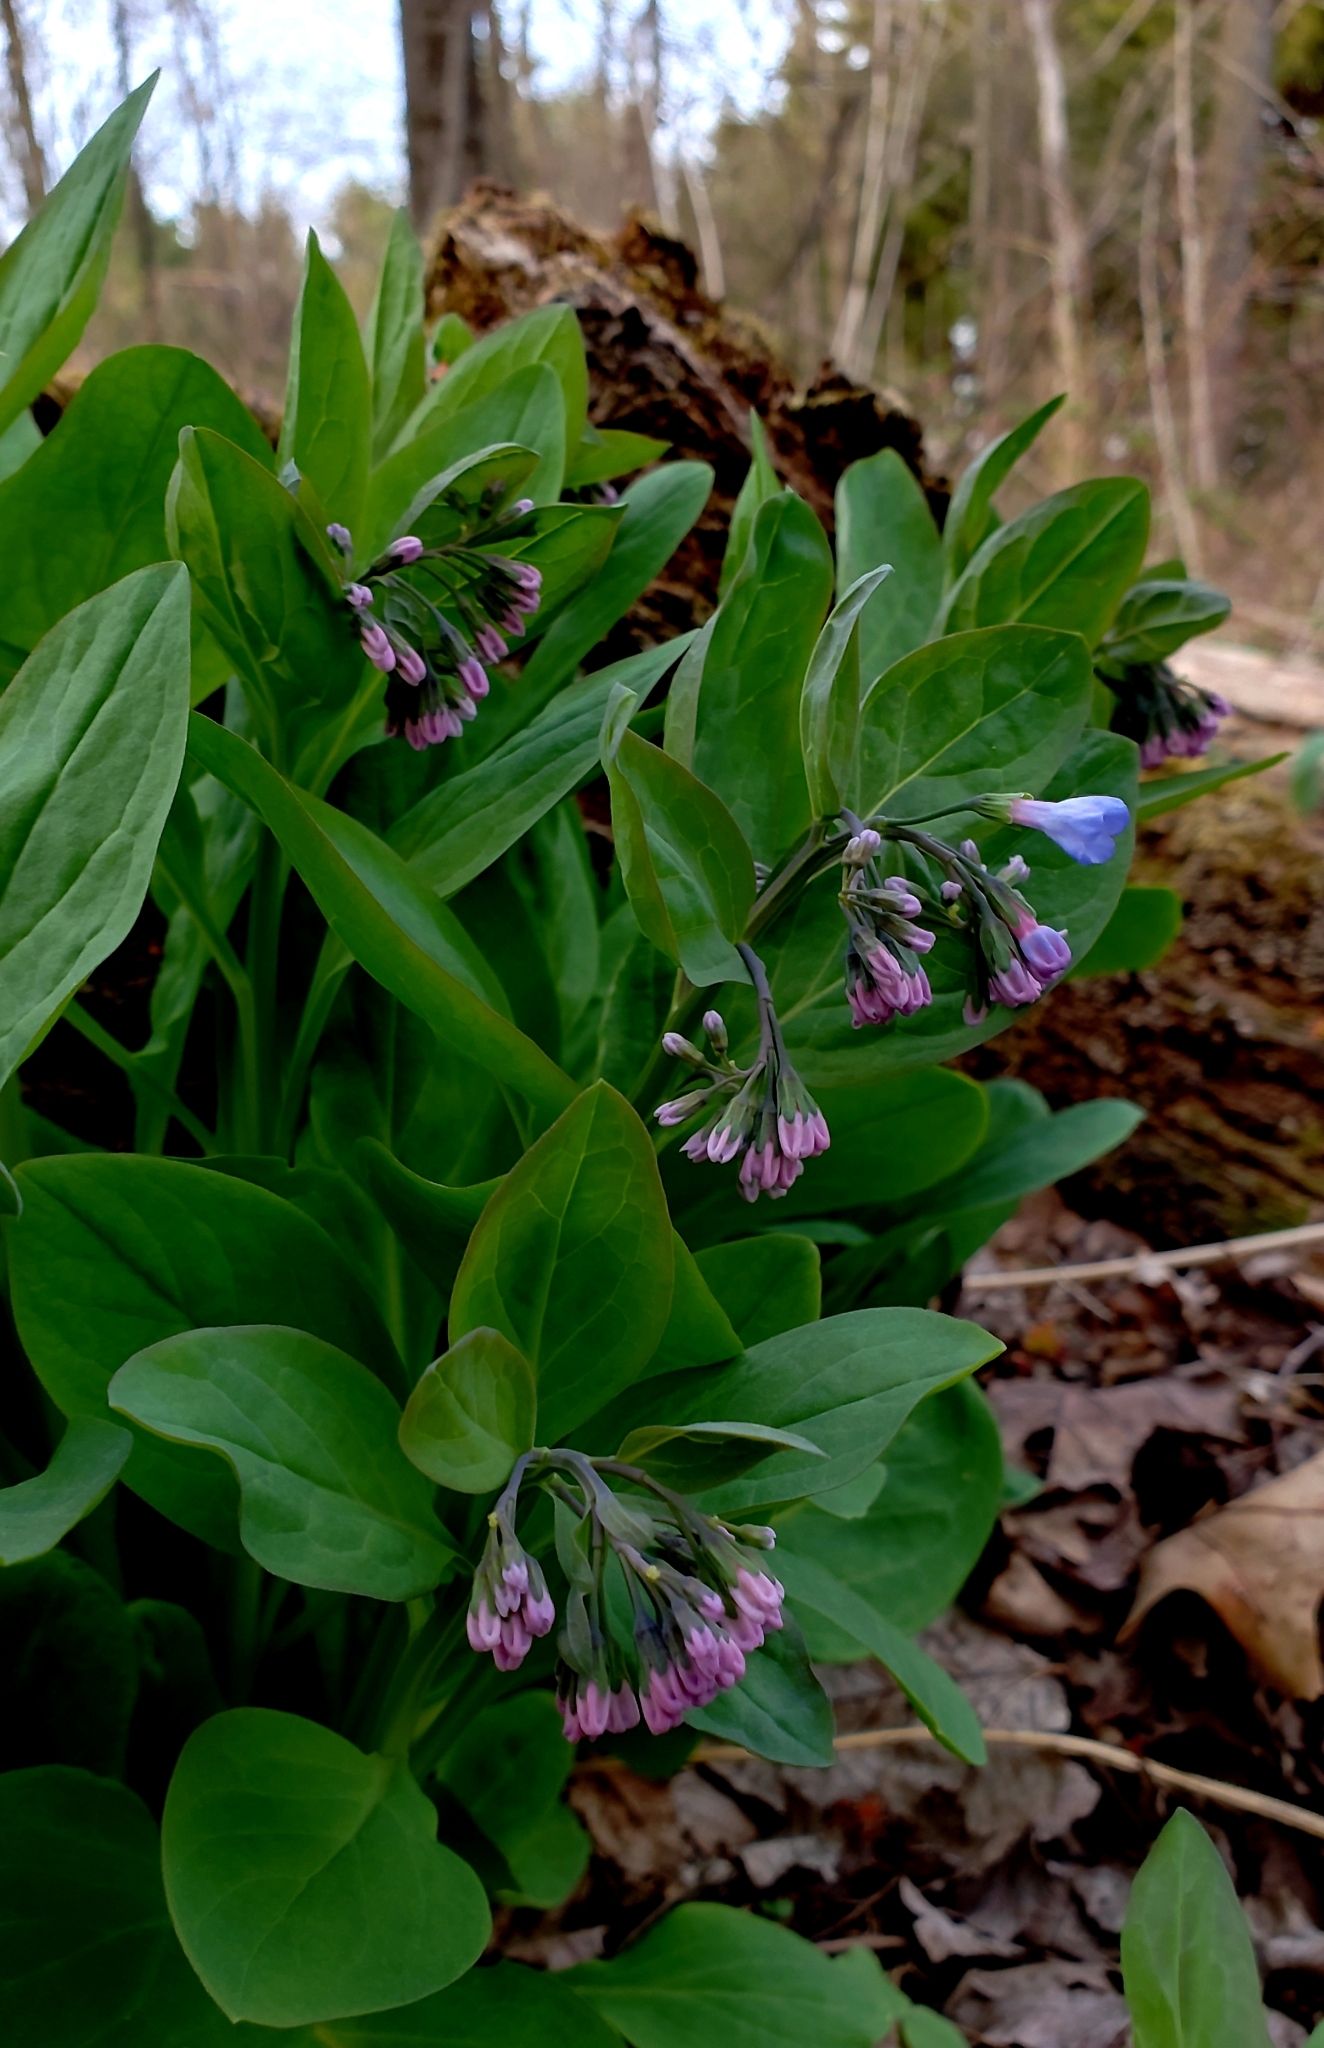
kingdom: Plantae
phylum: Tracheophyta
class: Magnoliopsida
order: Boraginales
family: Boraginaceae
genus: Mertensia
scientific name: Mertensia virginica
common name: Virginia bluebells
